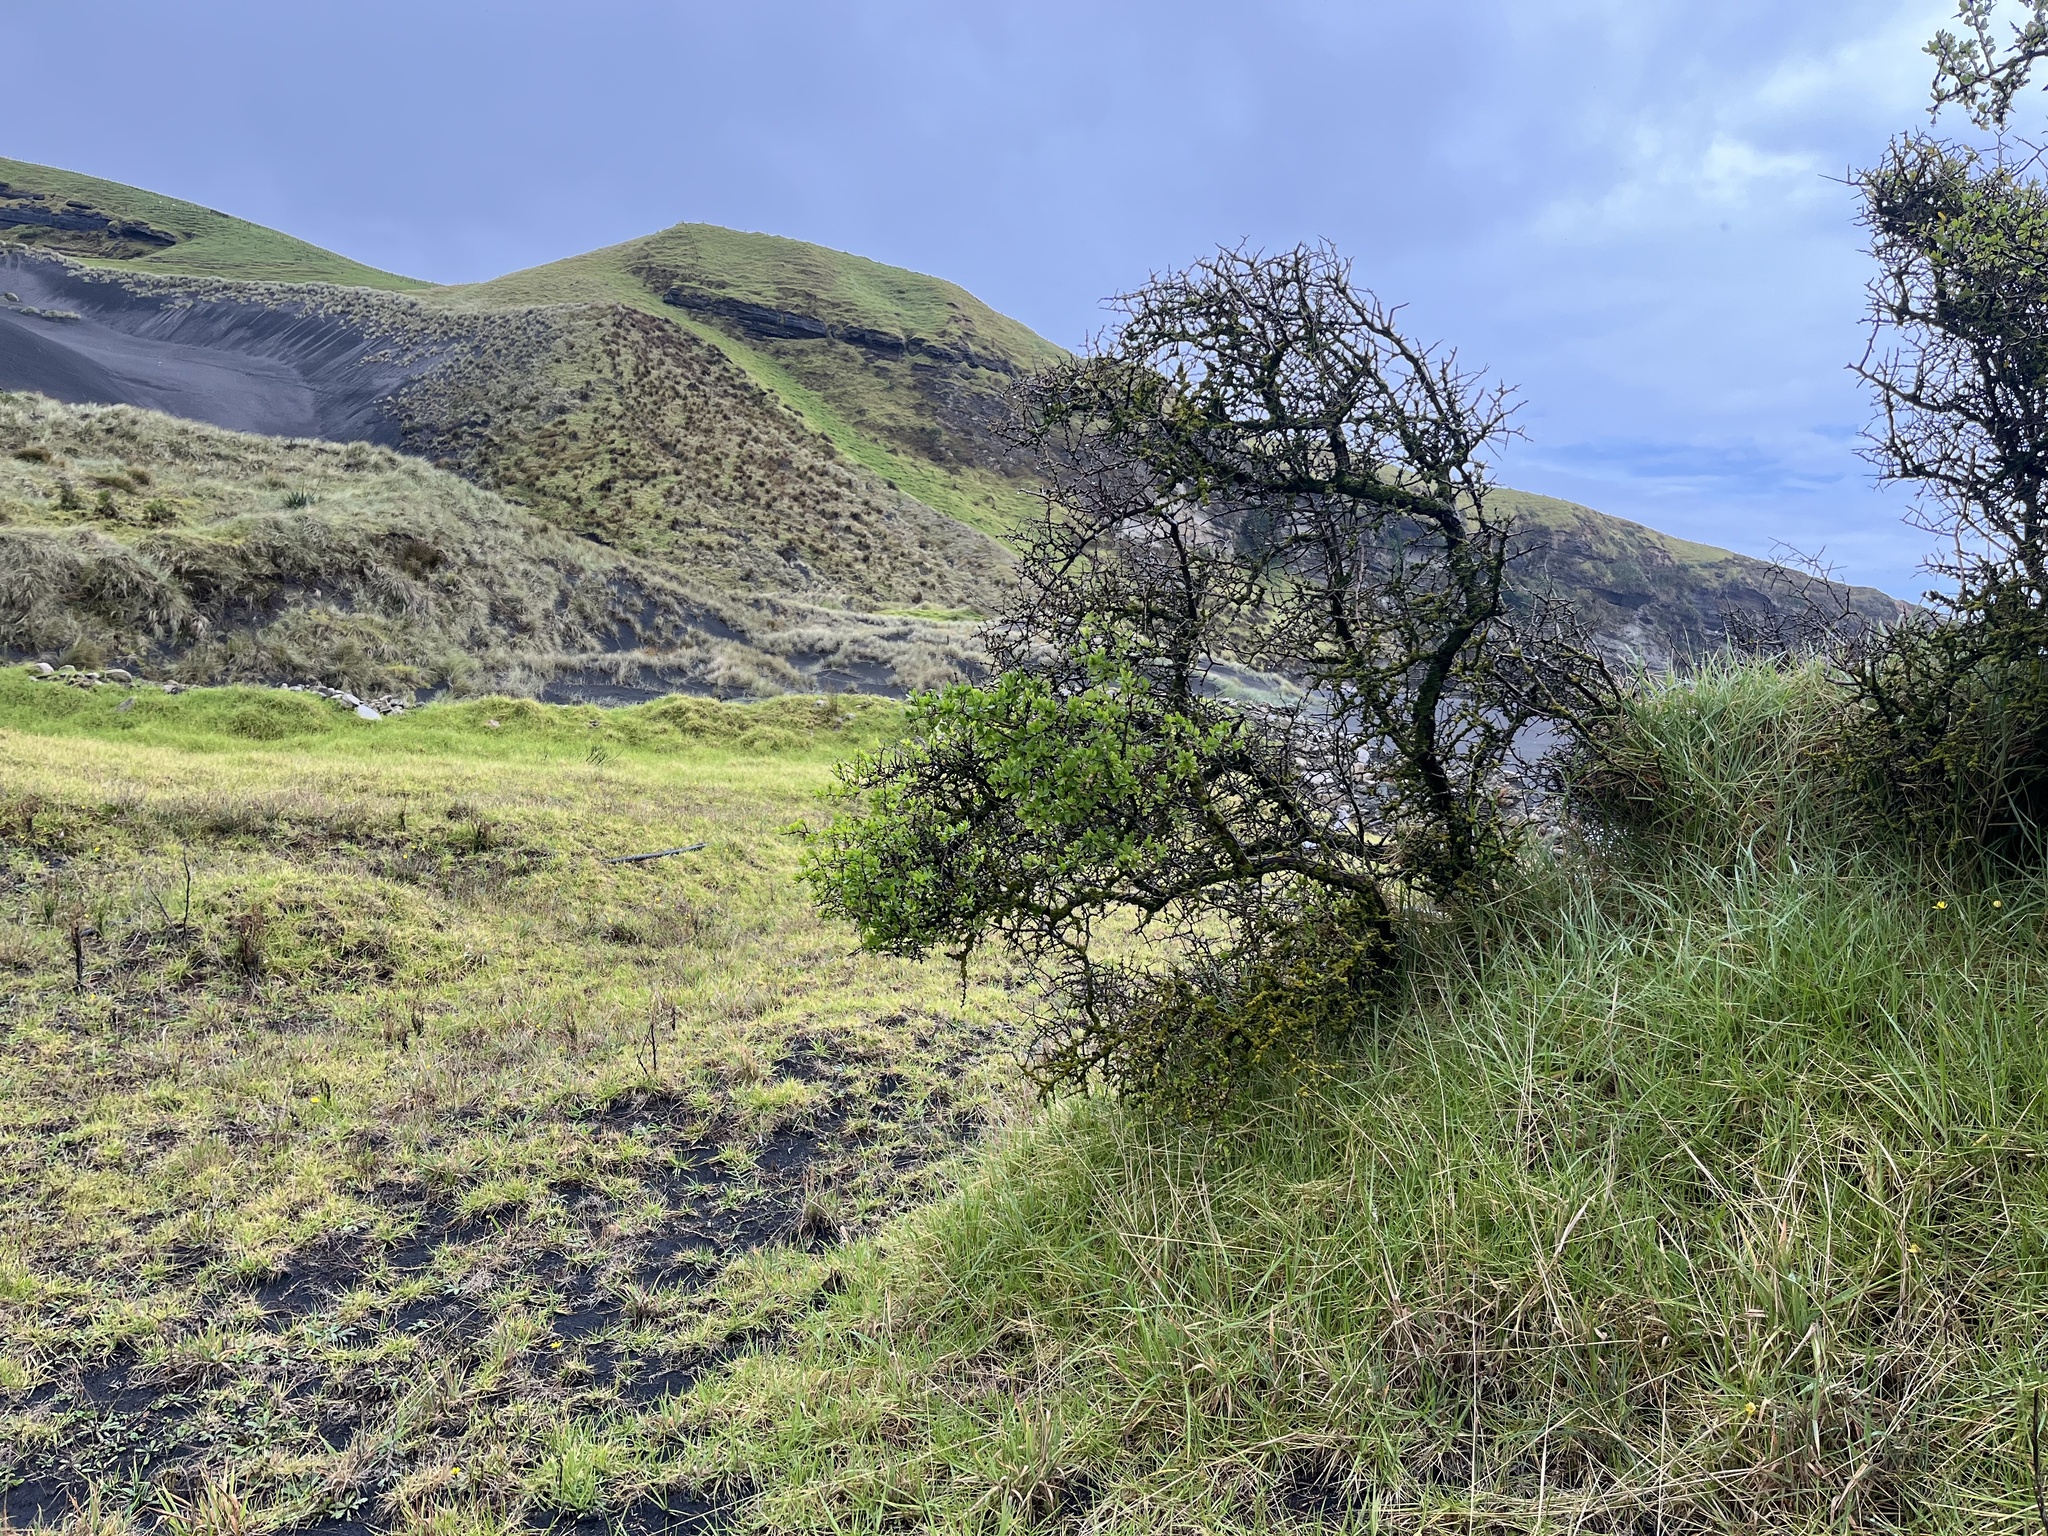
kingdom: Plantae
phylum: Tracheophyta
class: Magnoliopsida
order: Solanales
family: Solanaceae
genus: Lycium
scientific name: Lycium ferocissimum
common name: African boxthorn
